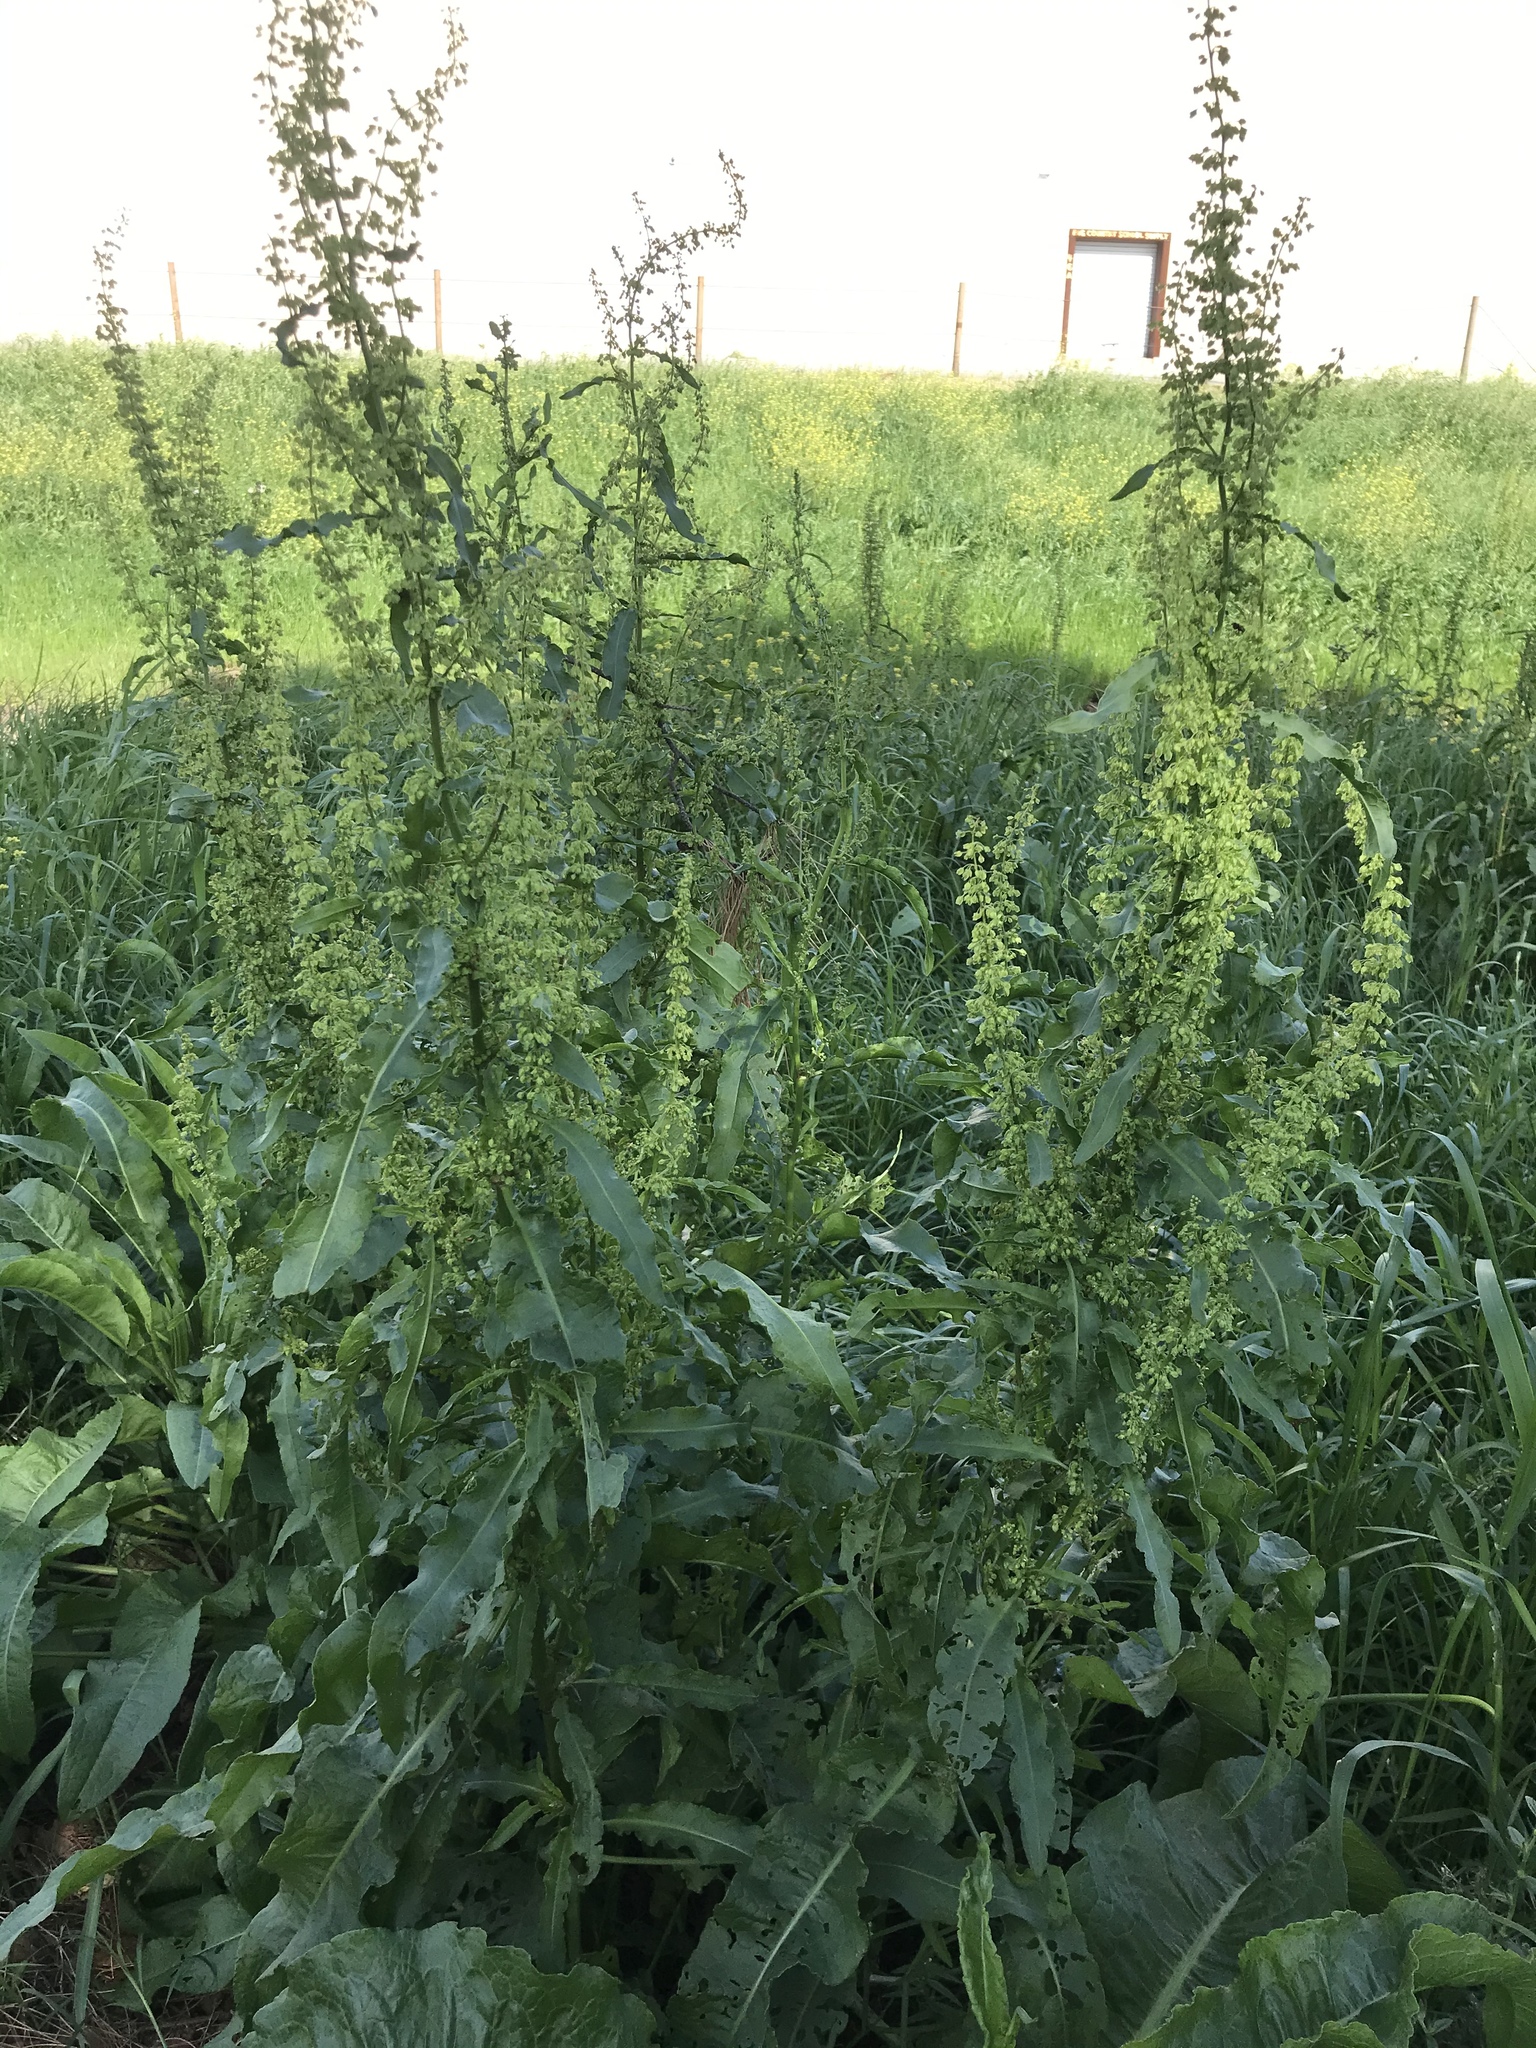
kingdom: Plantae
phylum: Tracheophyta
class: Magnoliopsida
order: Caryophyllales
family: Polygonaceae
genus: Rumex
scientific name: Rumex crispus
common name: Curled dock
